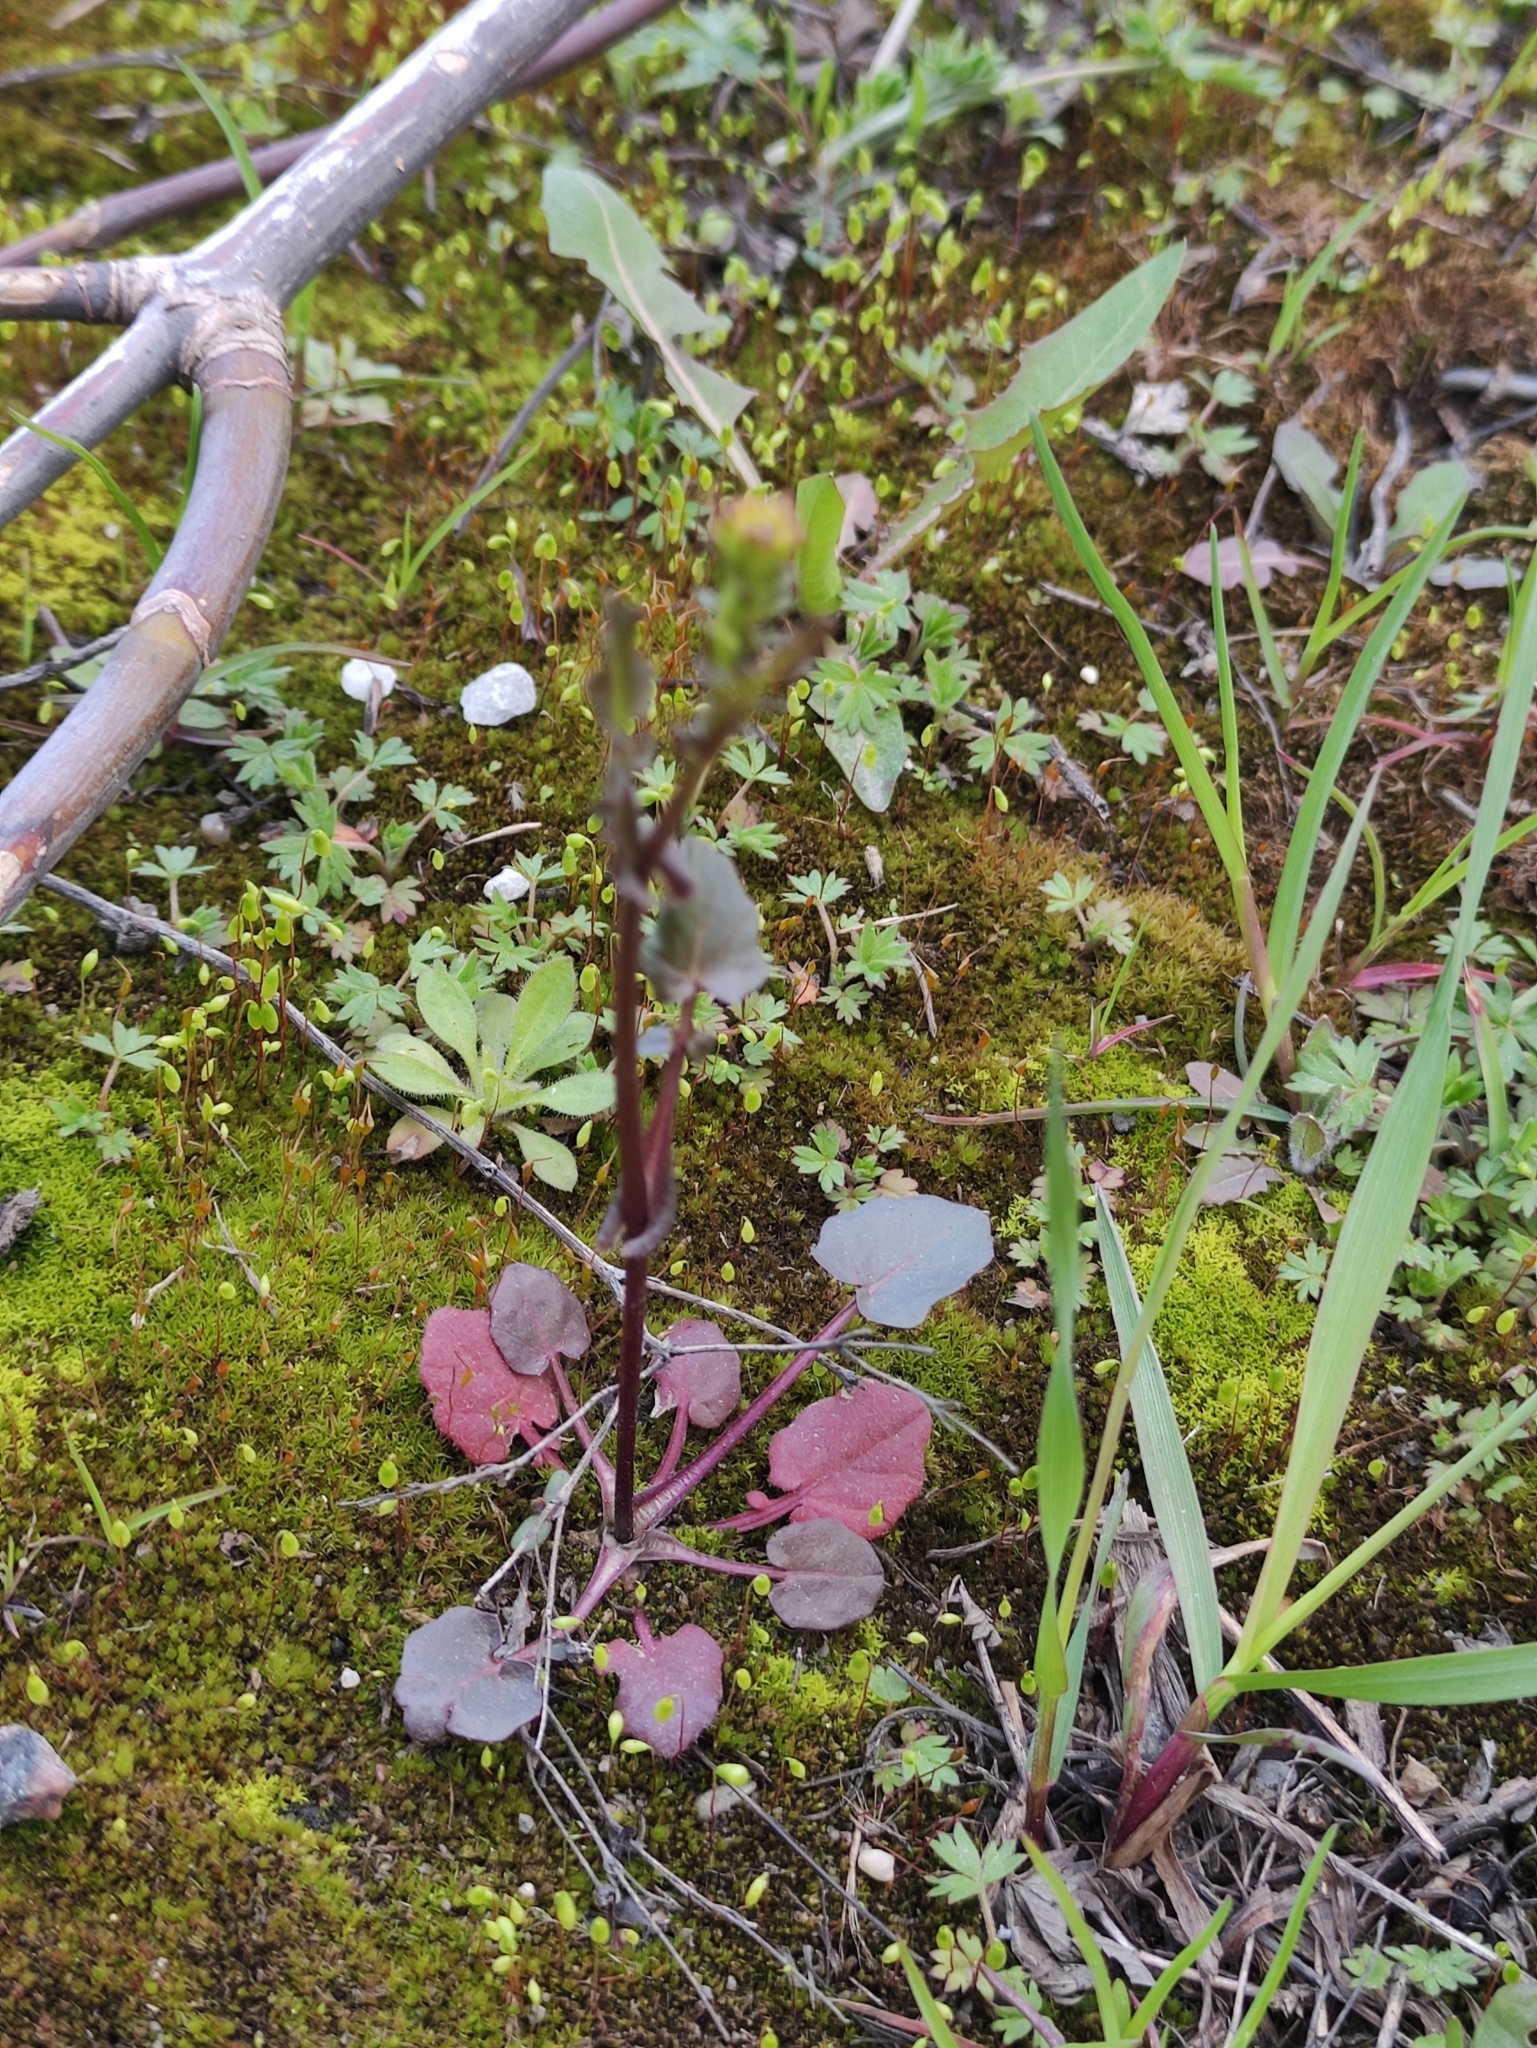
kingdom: Plantae
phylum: Tracheophyta
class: Magnoliopsida
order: Brassicales
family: Brassicaceae
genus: Barbarea
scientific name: Barbarea vulgaris
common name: Cressy-greens
